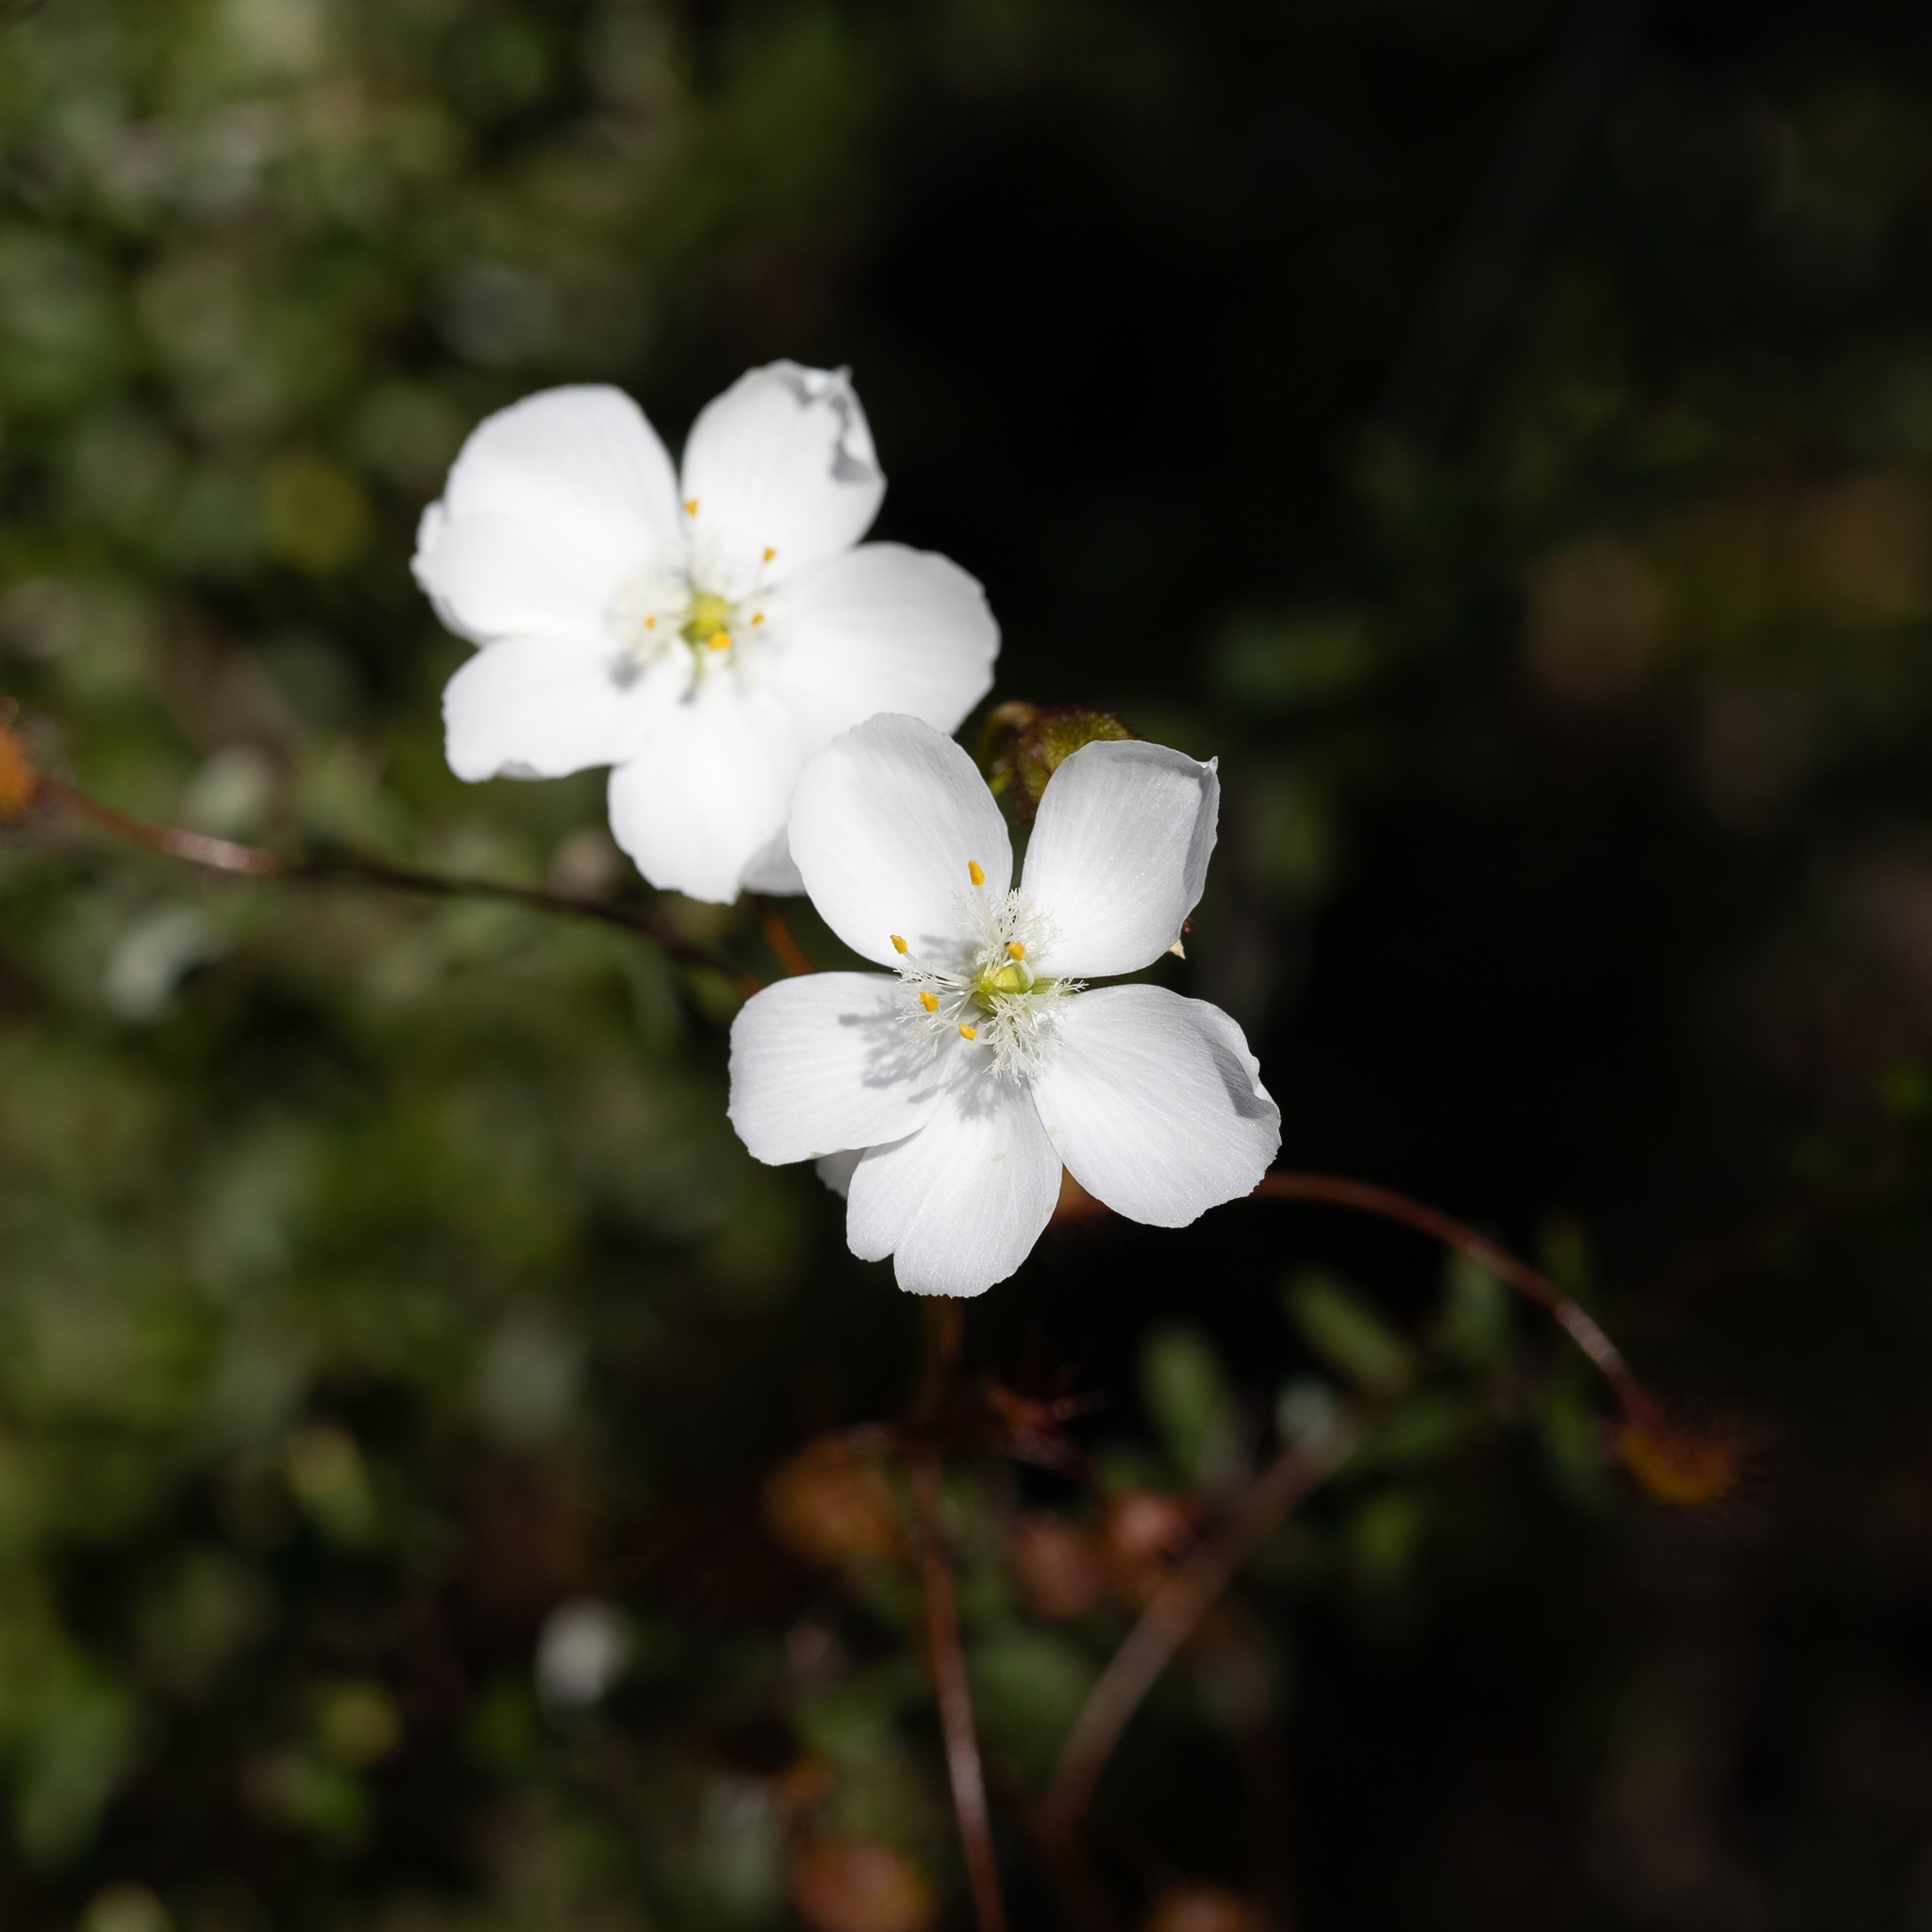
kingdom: Plantae
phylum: Tracheophyta
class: Magnoliopsida
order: Caryophyllales
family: Droseraceae
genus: Drosera
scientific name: Drosera planchonii
